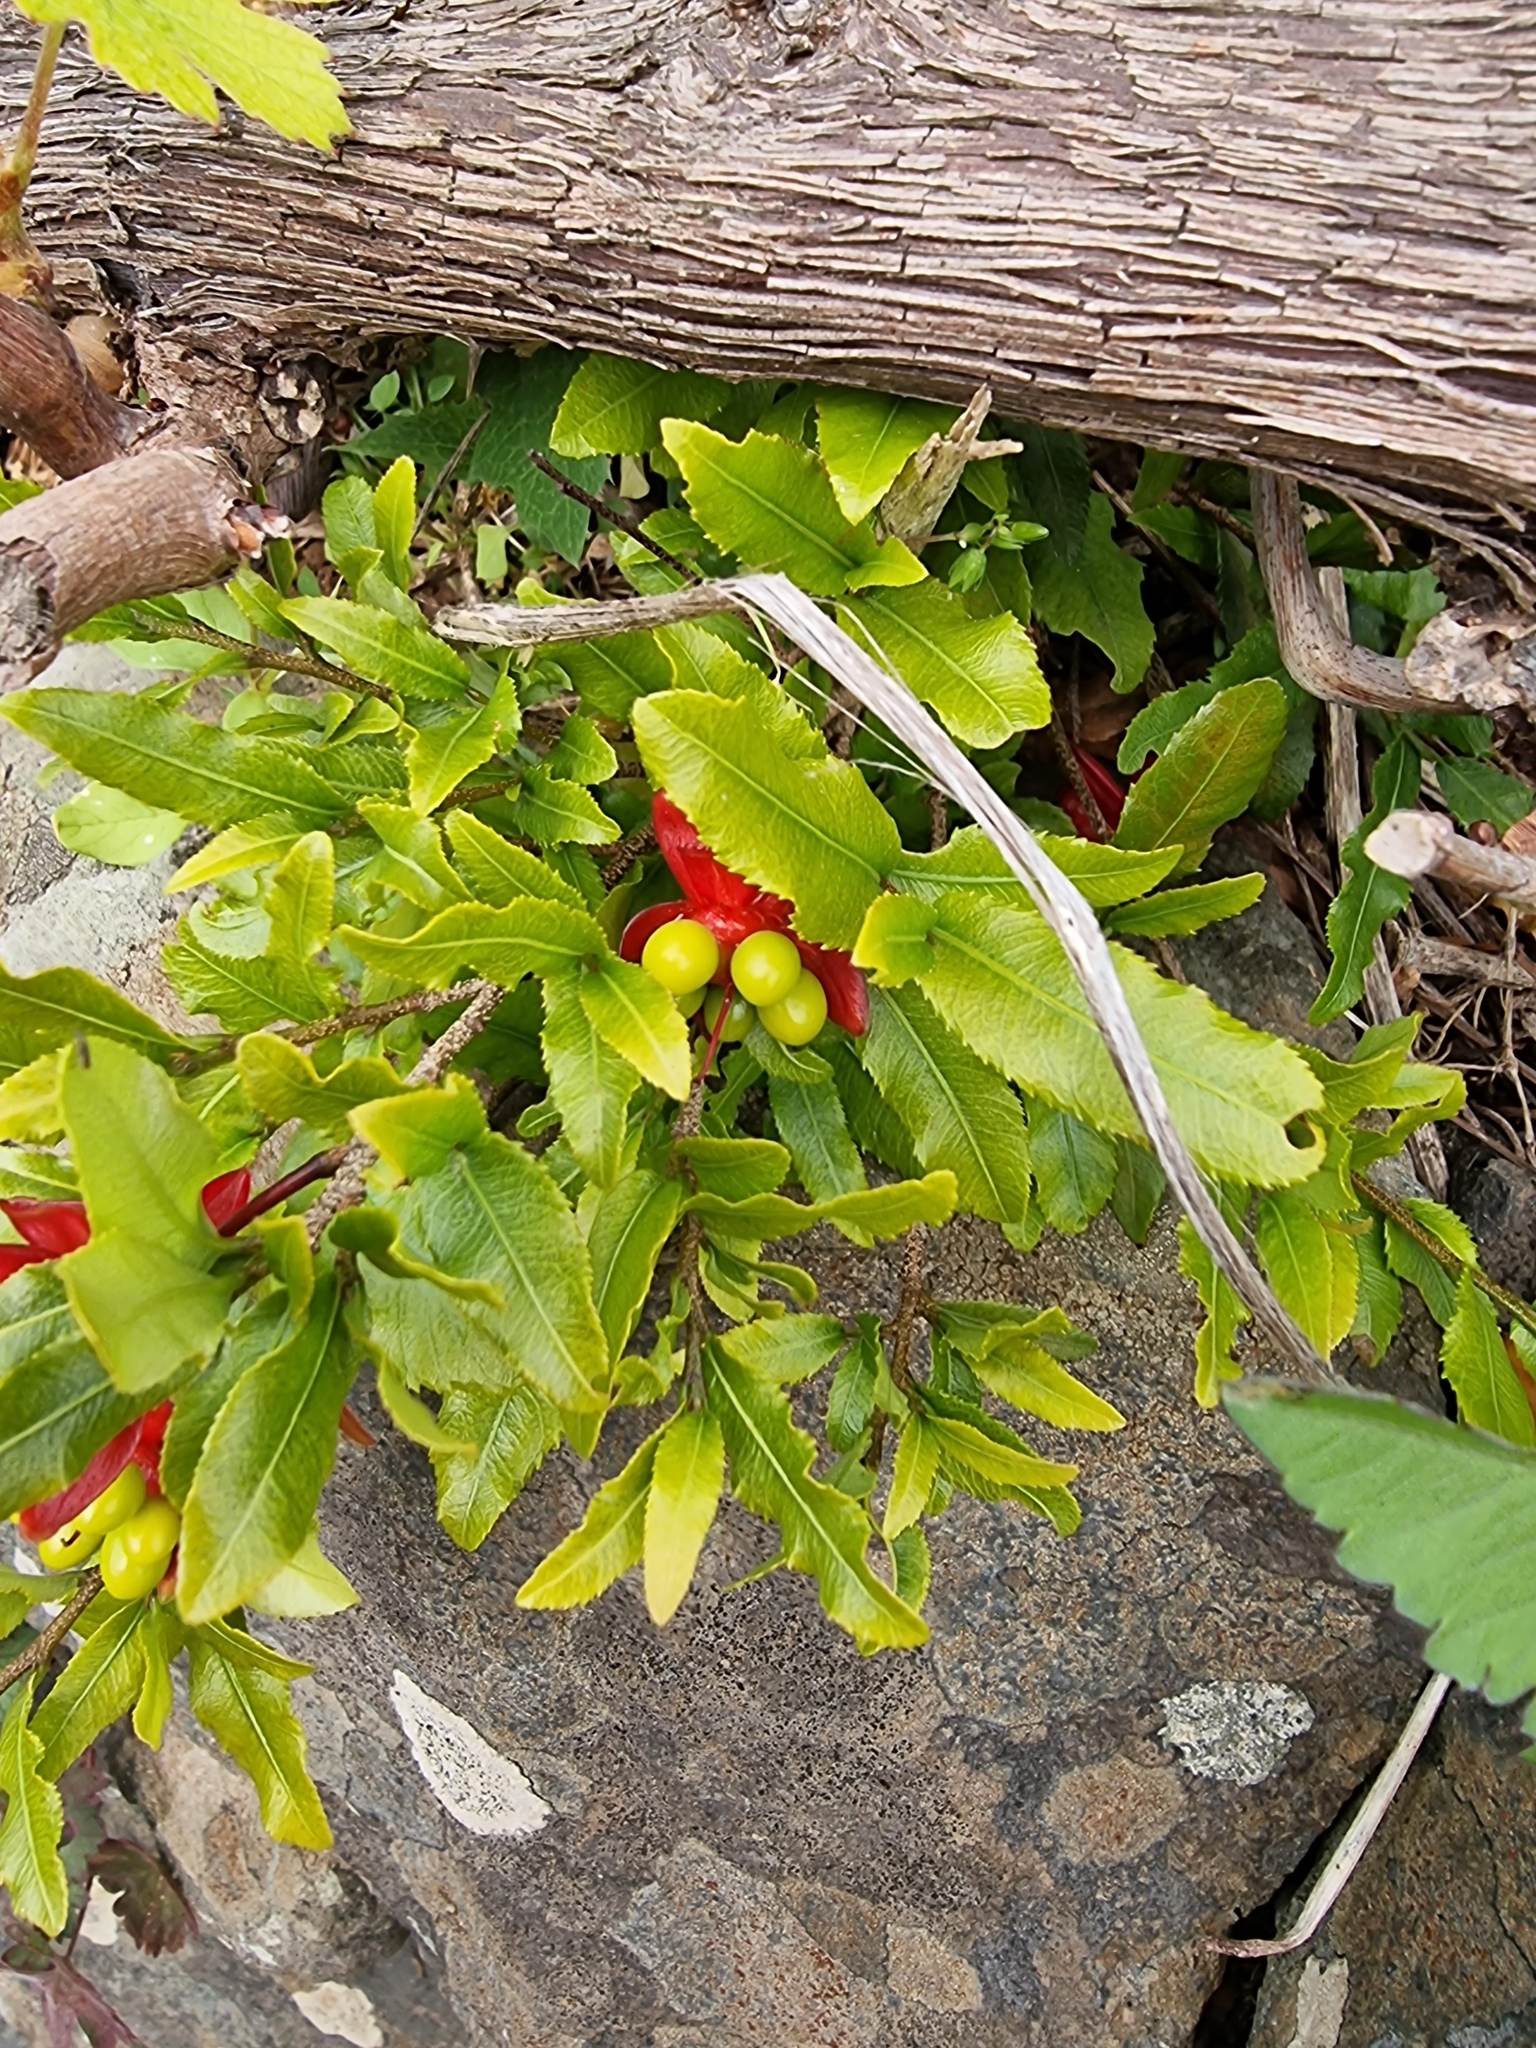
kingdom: Plantae
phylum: Tracheophyta
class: Magnoliopsida
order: Malpighiales
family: Ochnaceae
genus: Ochna
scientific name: Ochna serrulata
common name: Mickey mouse plant
